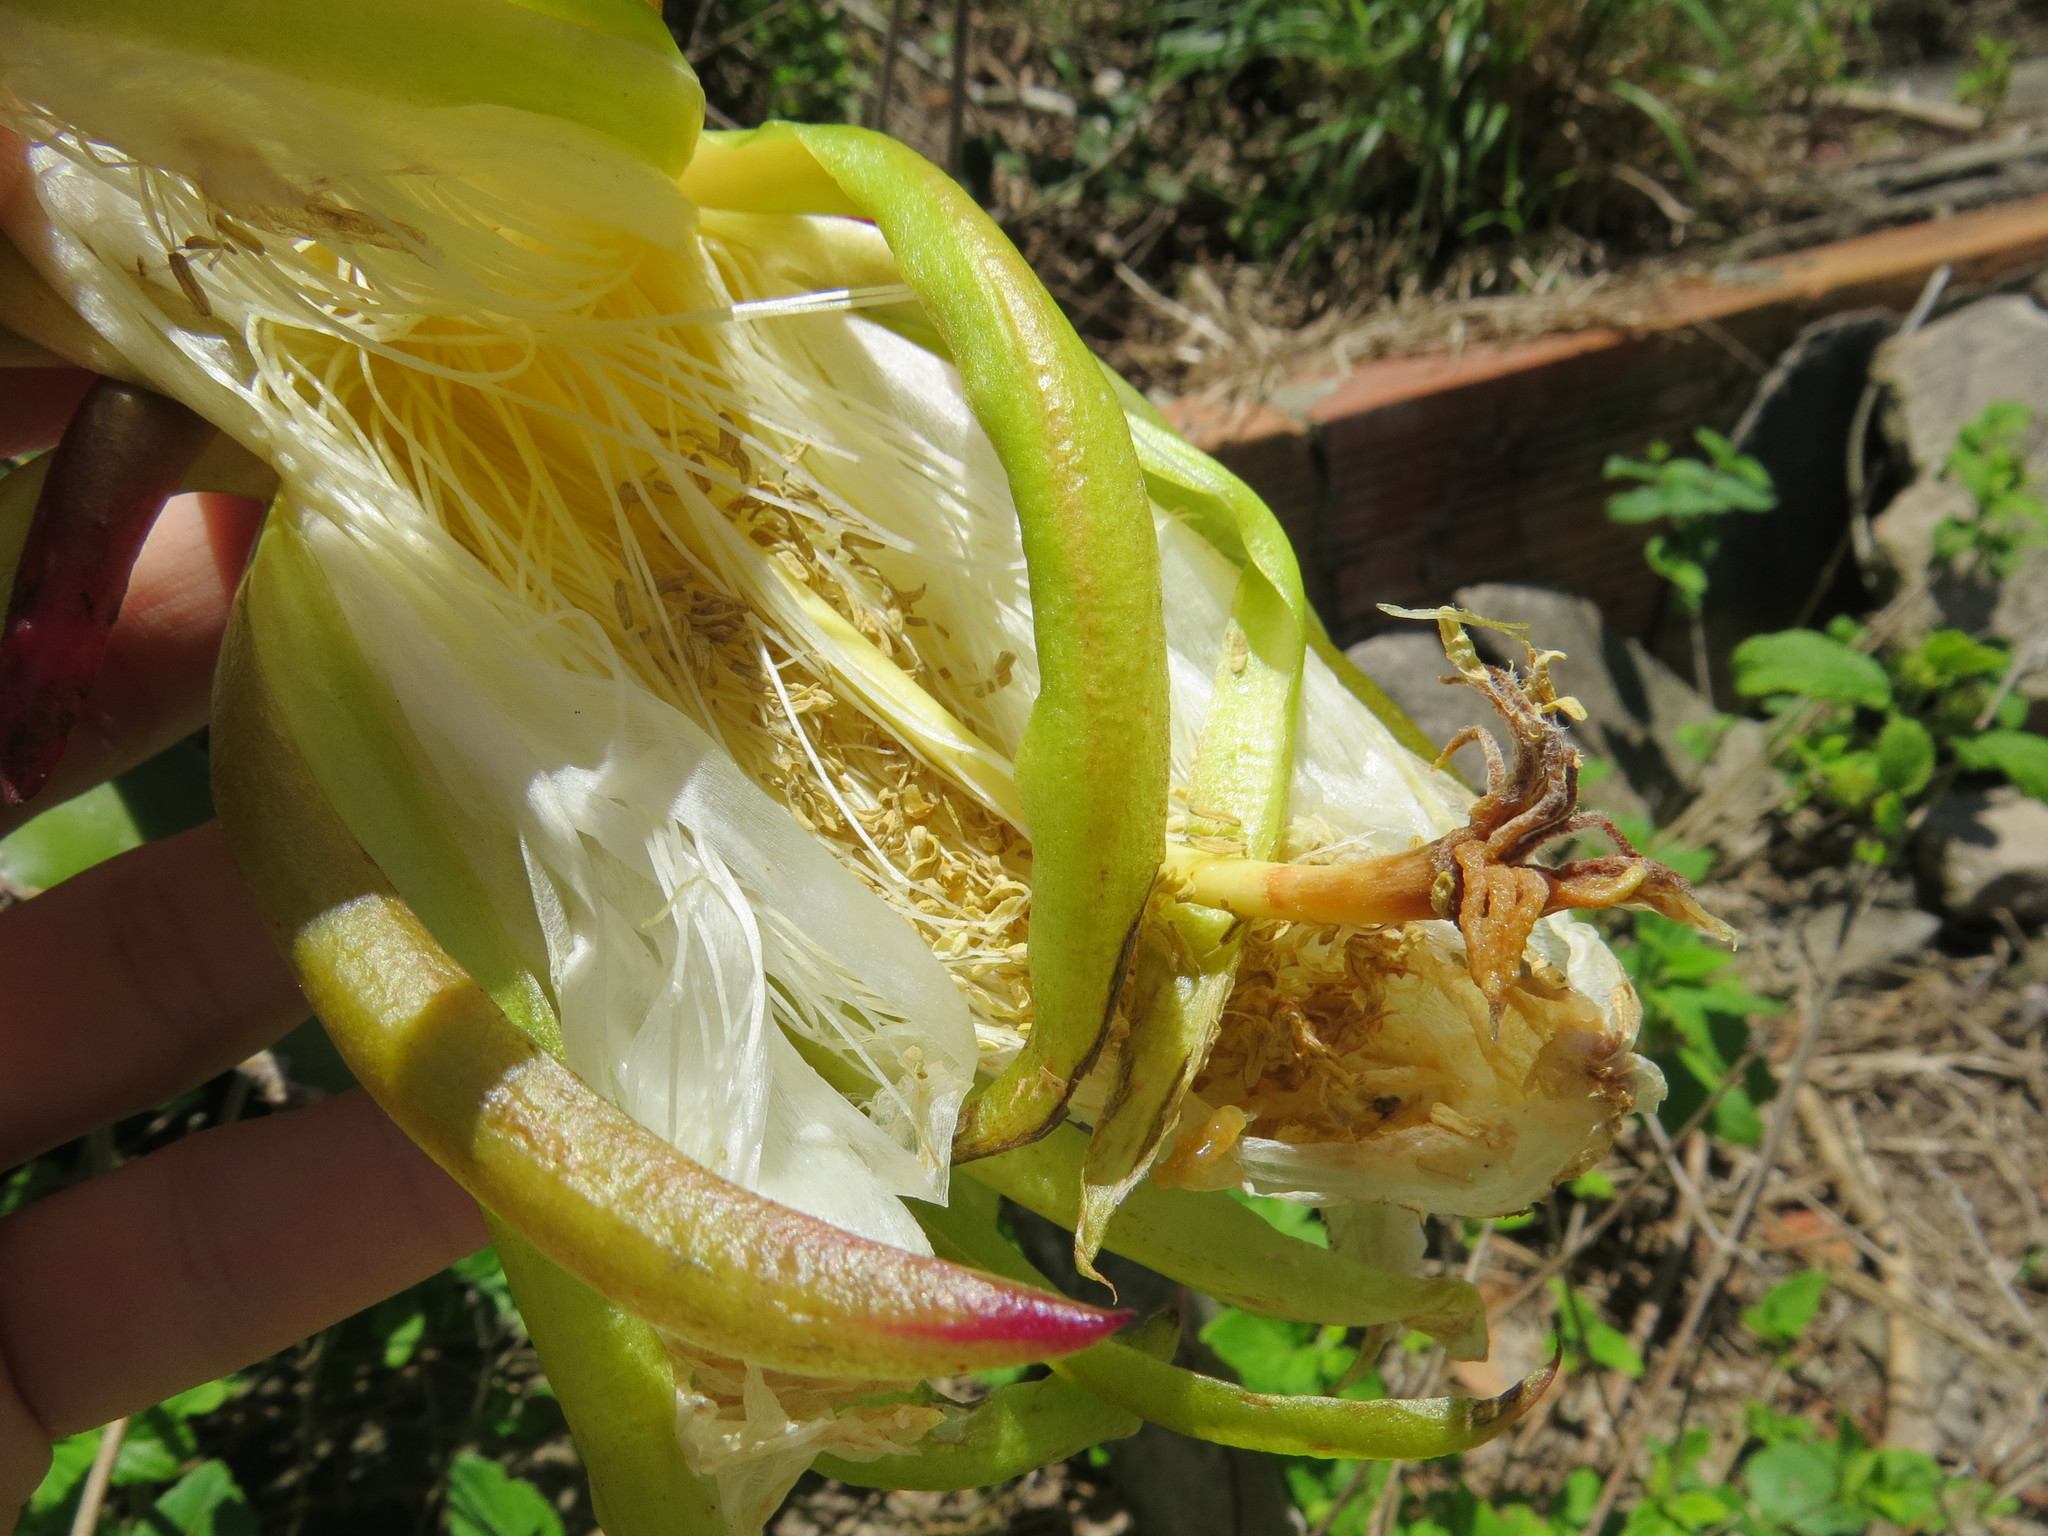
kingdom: Plantae
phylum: Tracheophyta
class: Magnoliopsida
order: Caryophyllales
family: Cactaceae
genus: Selenicereus
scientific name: Selenicereus setaceus
